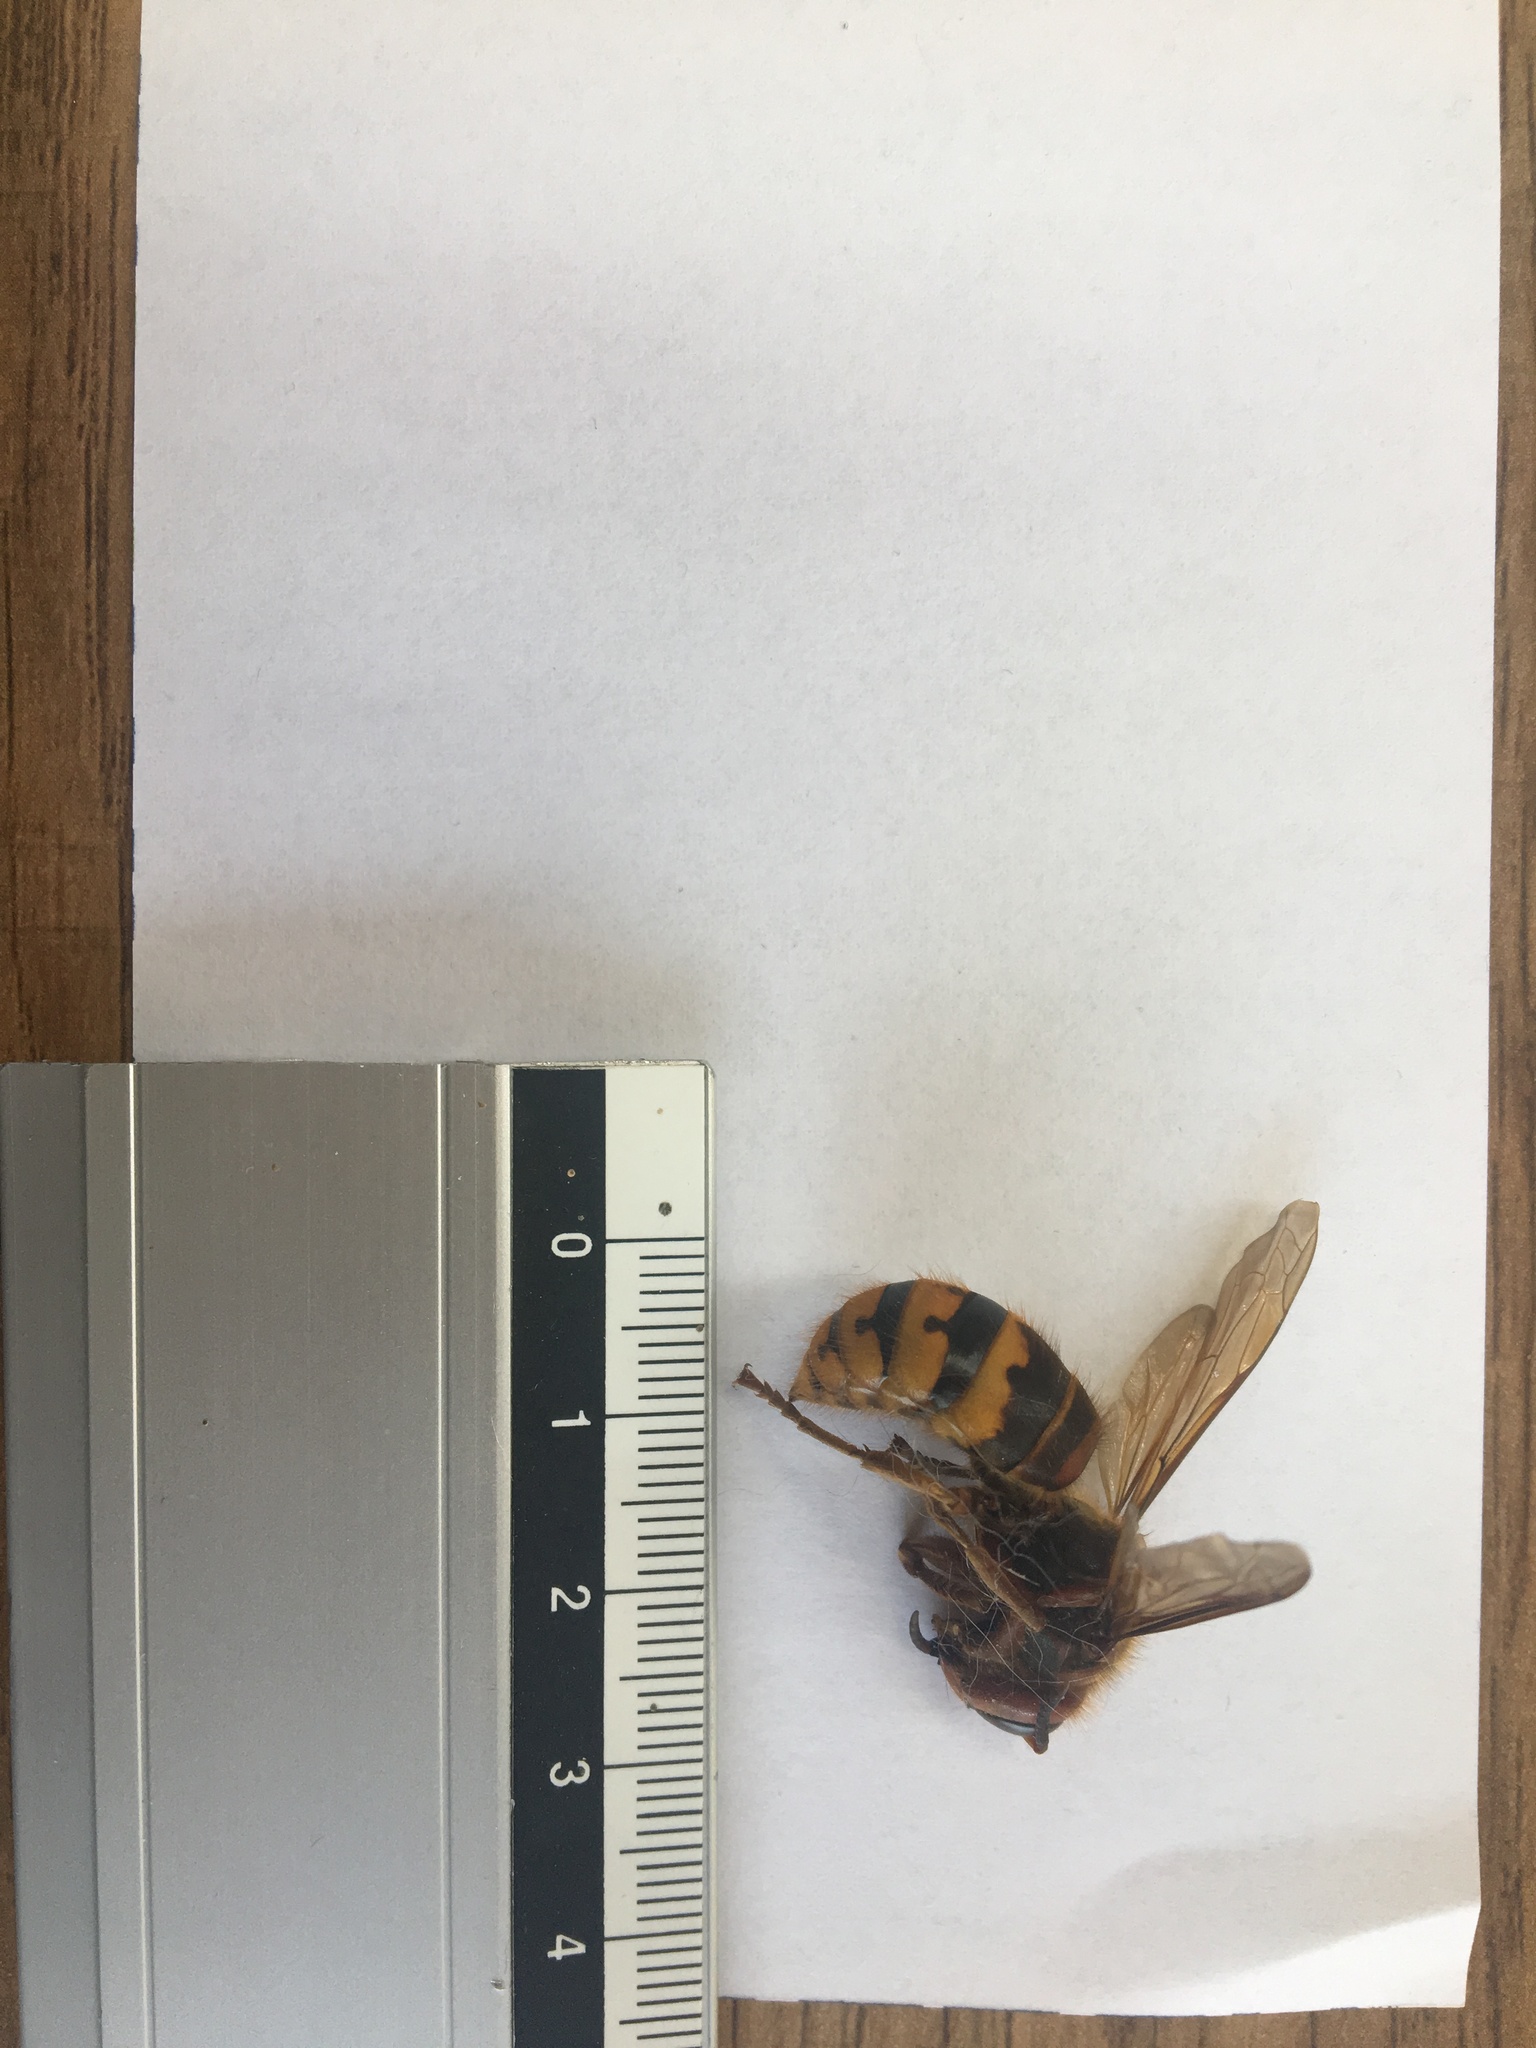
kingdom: Animalia
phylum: Arthropoda
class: Insecta
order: Hymenoptera
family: Vespidae
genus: Vespa
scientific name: Vespa crabro
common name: Hornet
